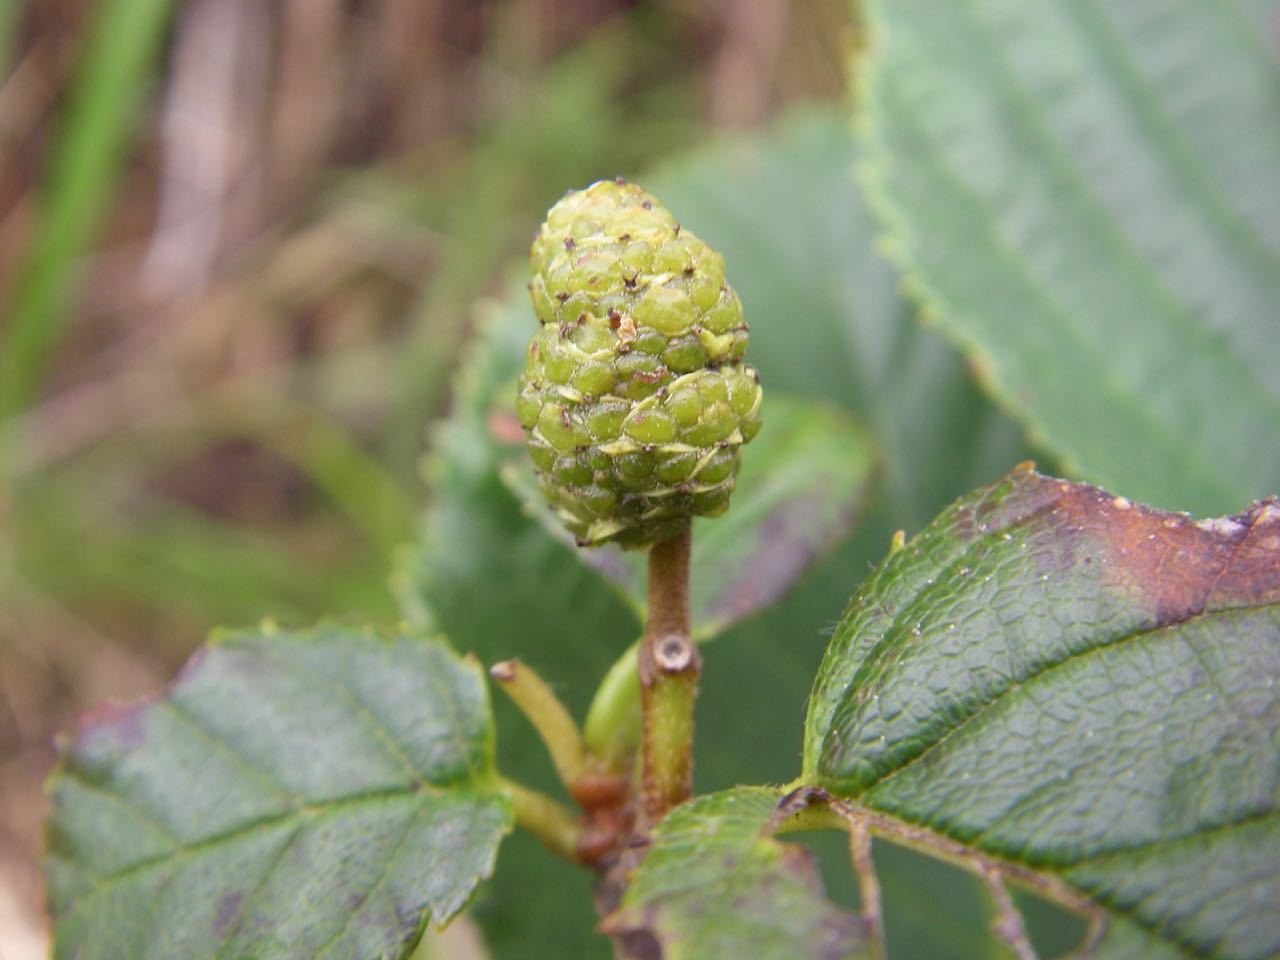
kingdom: Plantae
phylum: Tracheophyta
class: Magnoliopsida
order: Fagales
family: Betulaceae
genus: Betula
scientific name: Betula apoiensis
